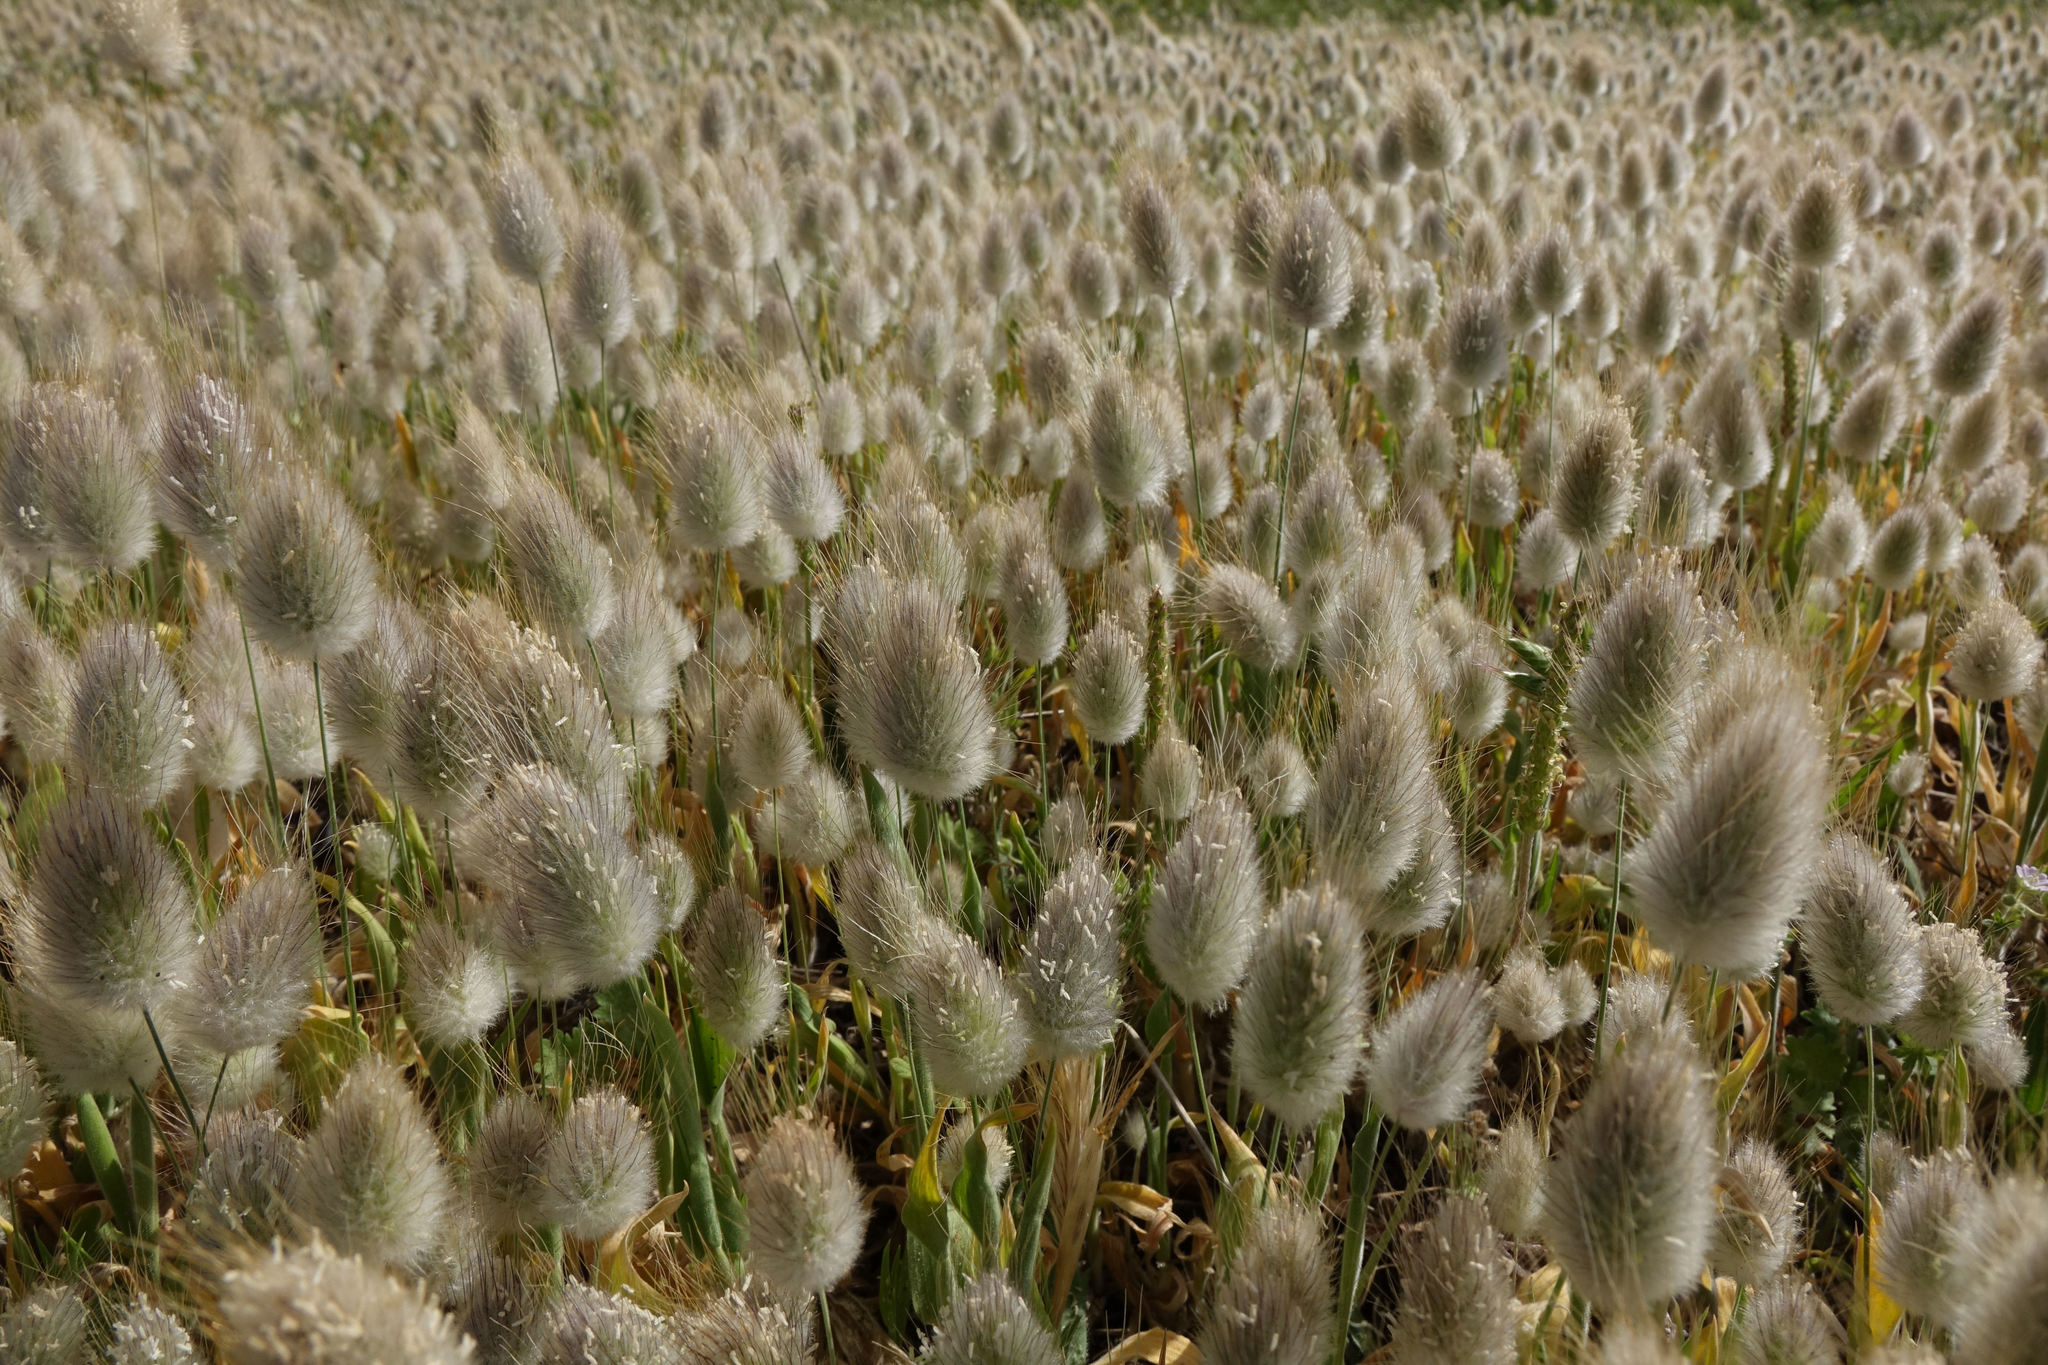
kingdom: Plantae
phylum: Tracheophyta
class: Liliopsida
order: Poales
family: Poaceae
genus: Lagurus
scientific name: Lagurus ovatus
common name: Hare's-tail
